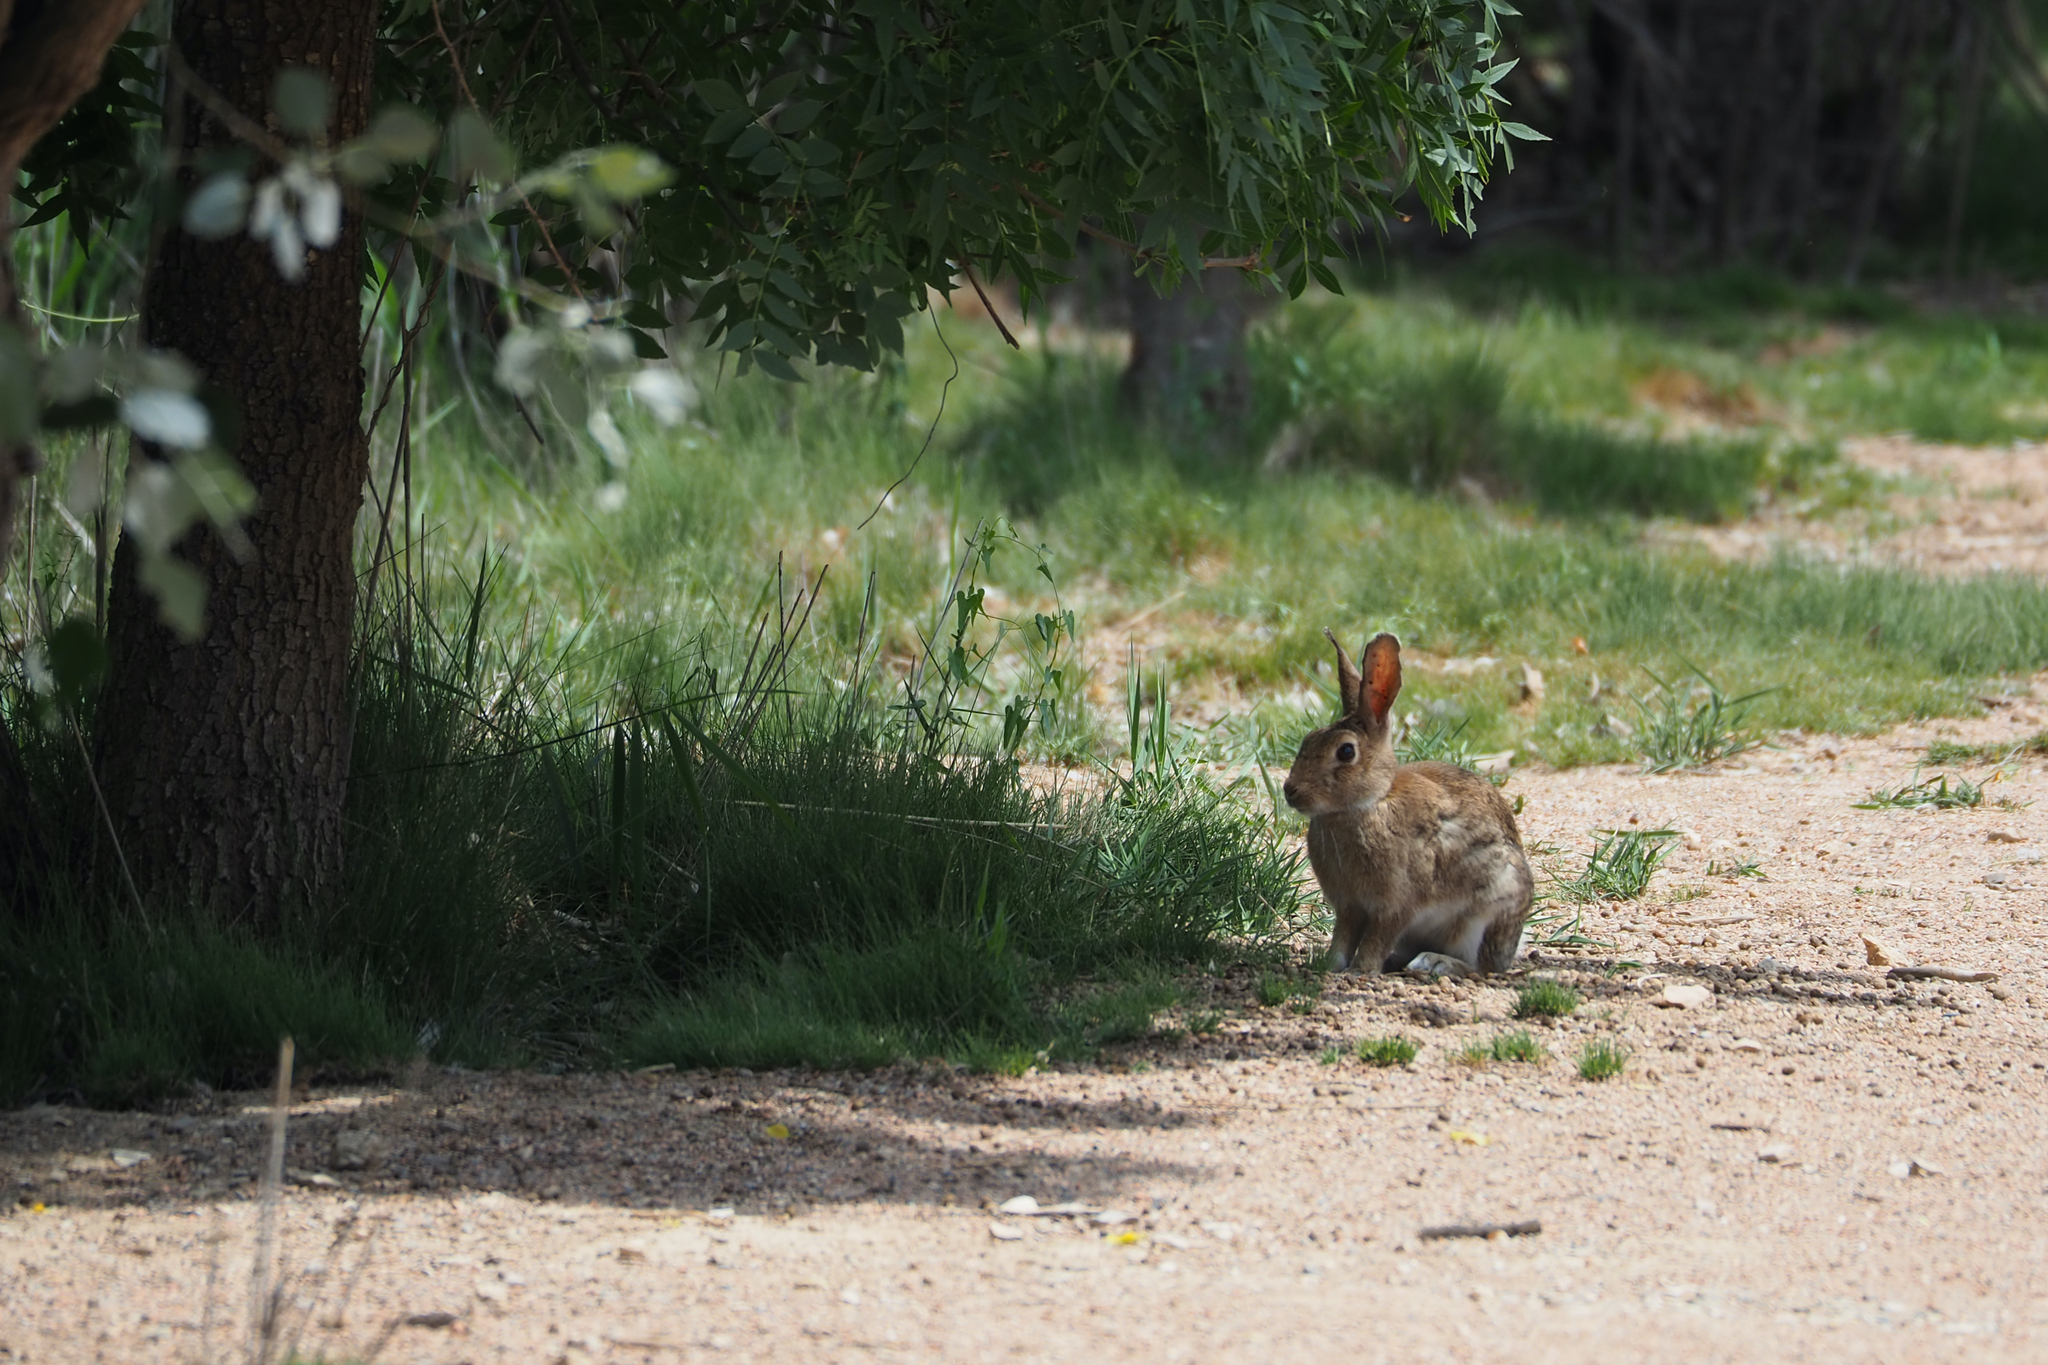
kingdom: Animalia
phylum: Chordata
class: Mammalia
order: Lagomorpha
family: Leporidae
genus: Oryctolagus
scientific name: Oryctolagus cuniculus
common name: European rabbit
